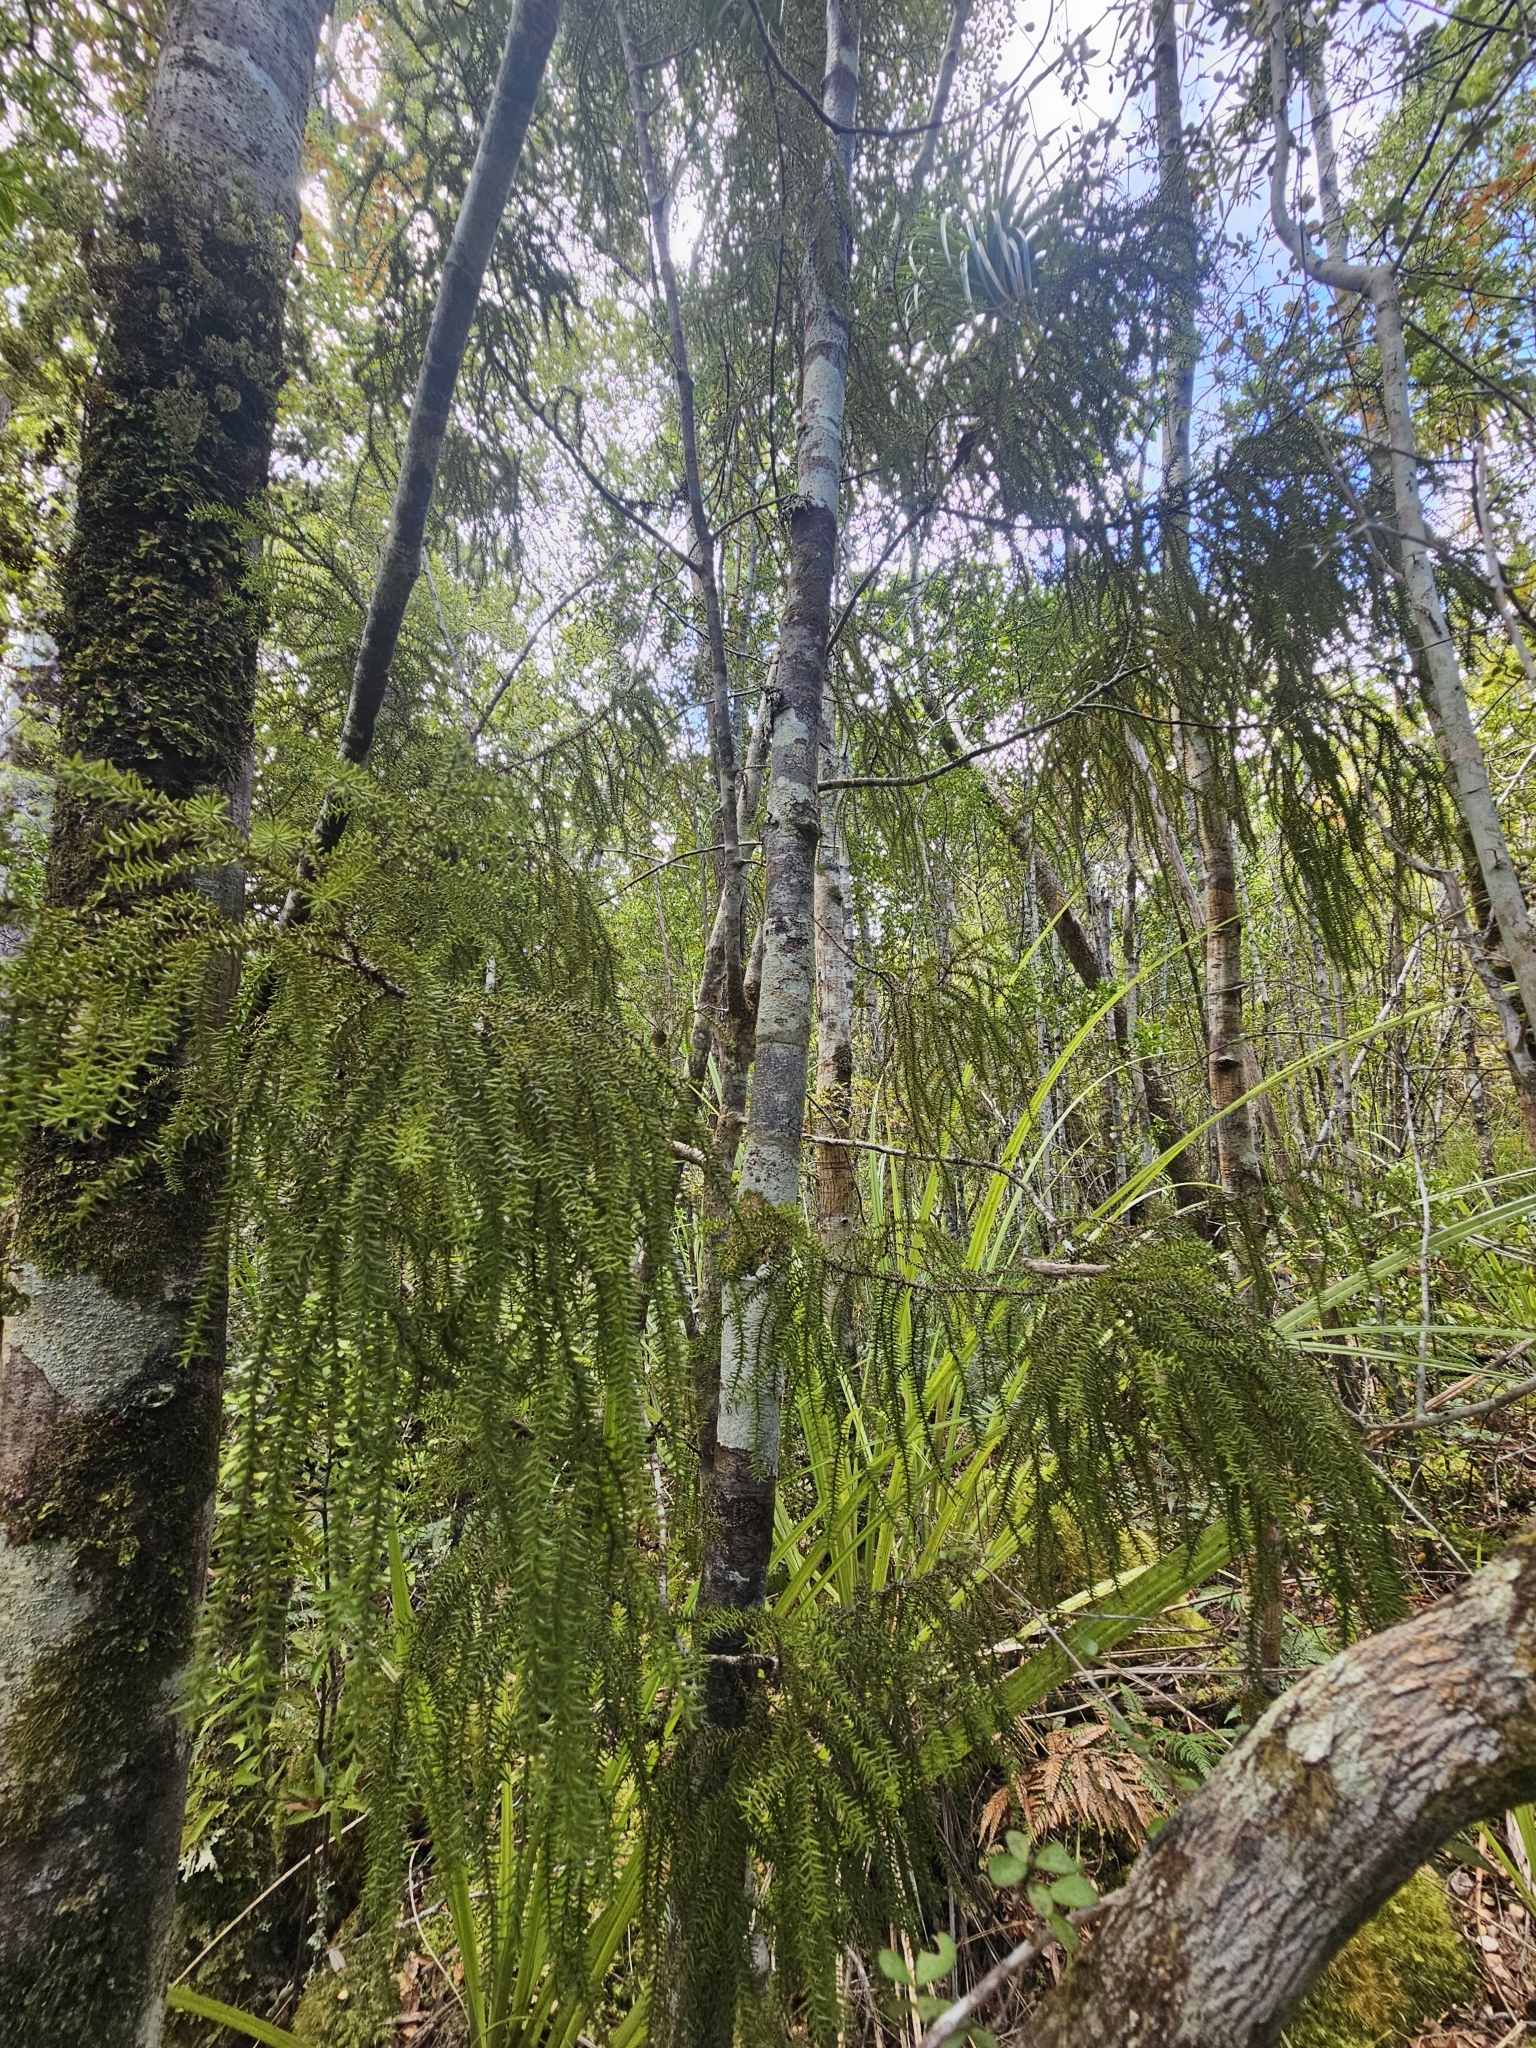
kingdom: Plantae
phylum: Tracheophyta
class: Pinopsida
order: Pinales
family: Podocarpaceae
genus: Lepidothamnus
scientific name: Lepidothamnus intermedius
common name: Yellow silver pine
